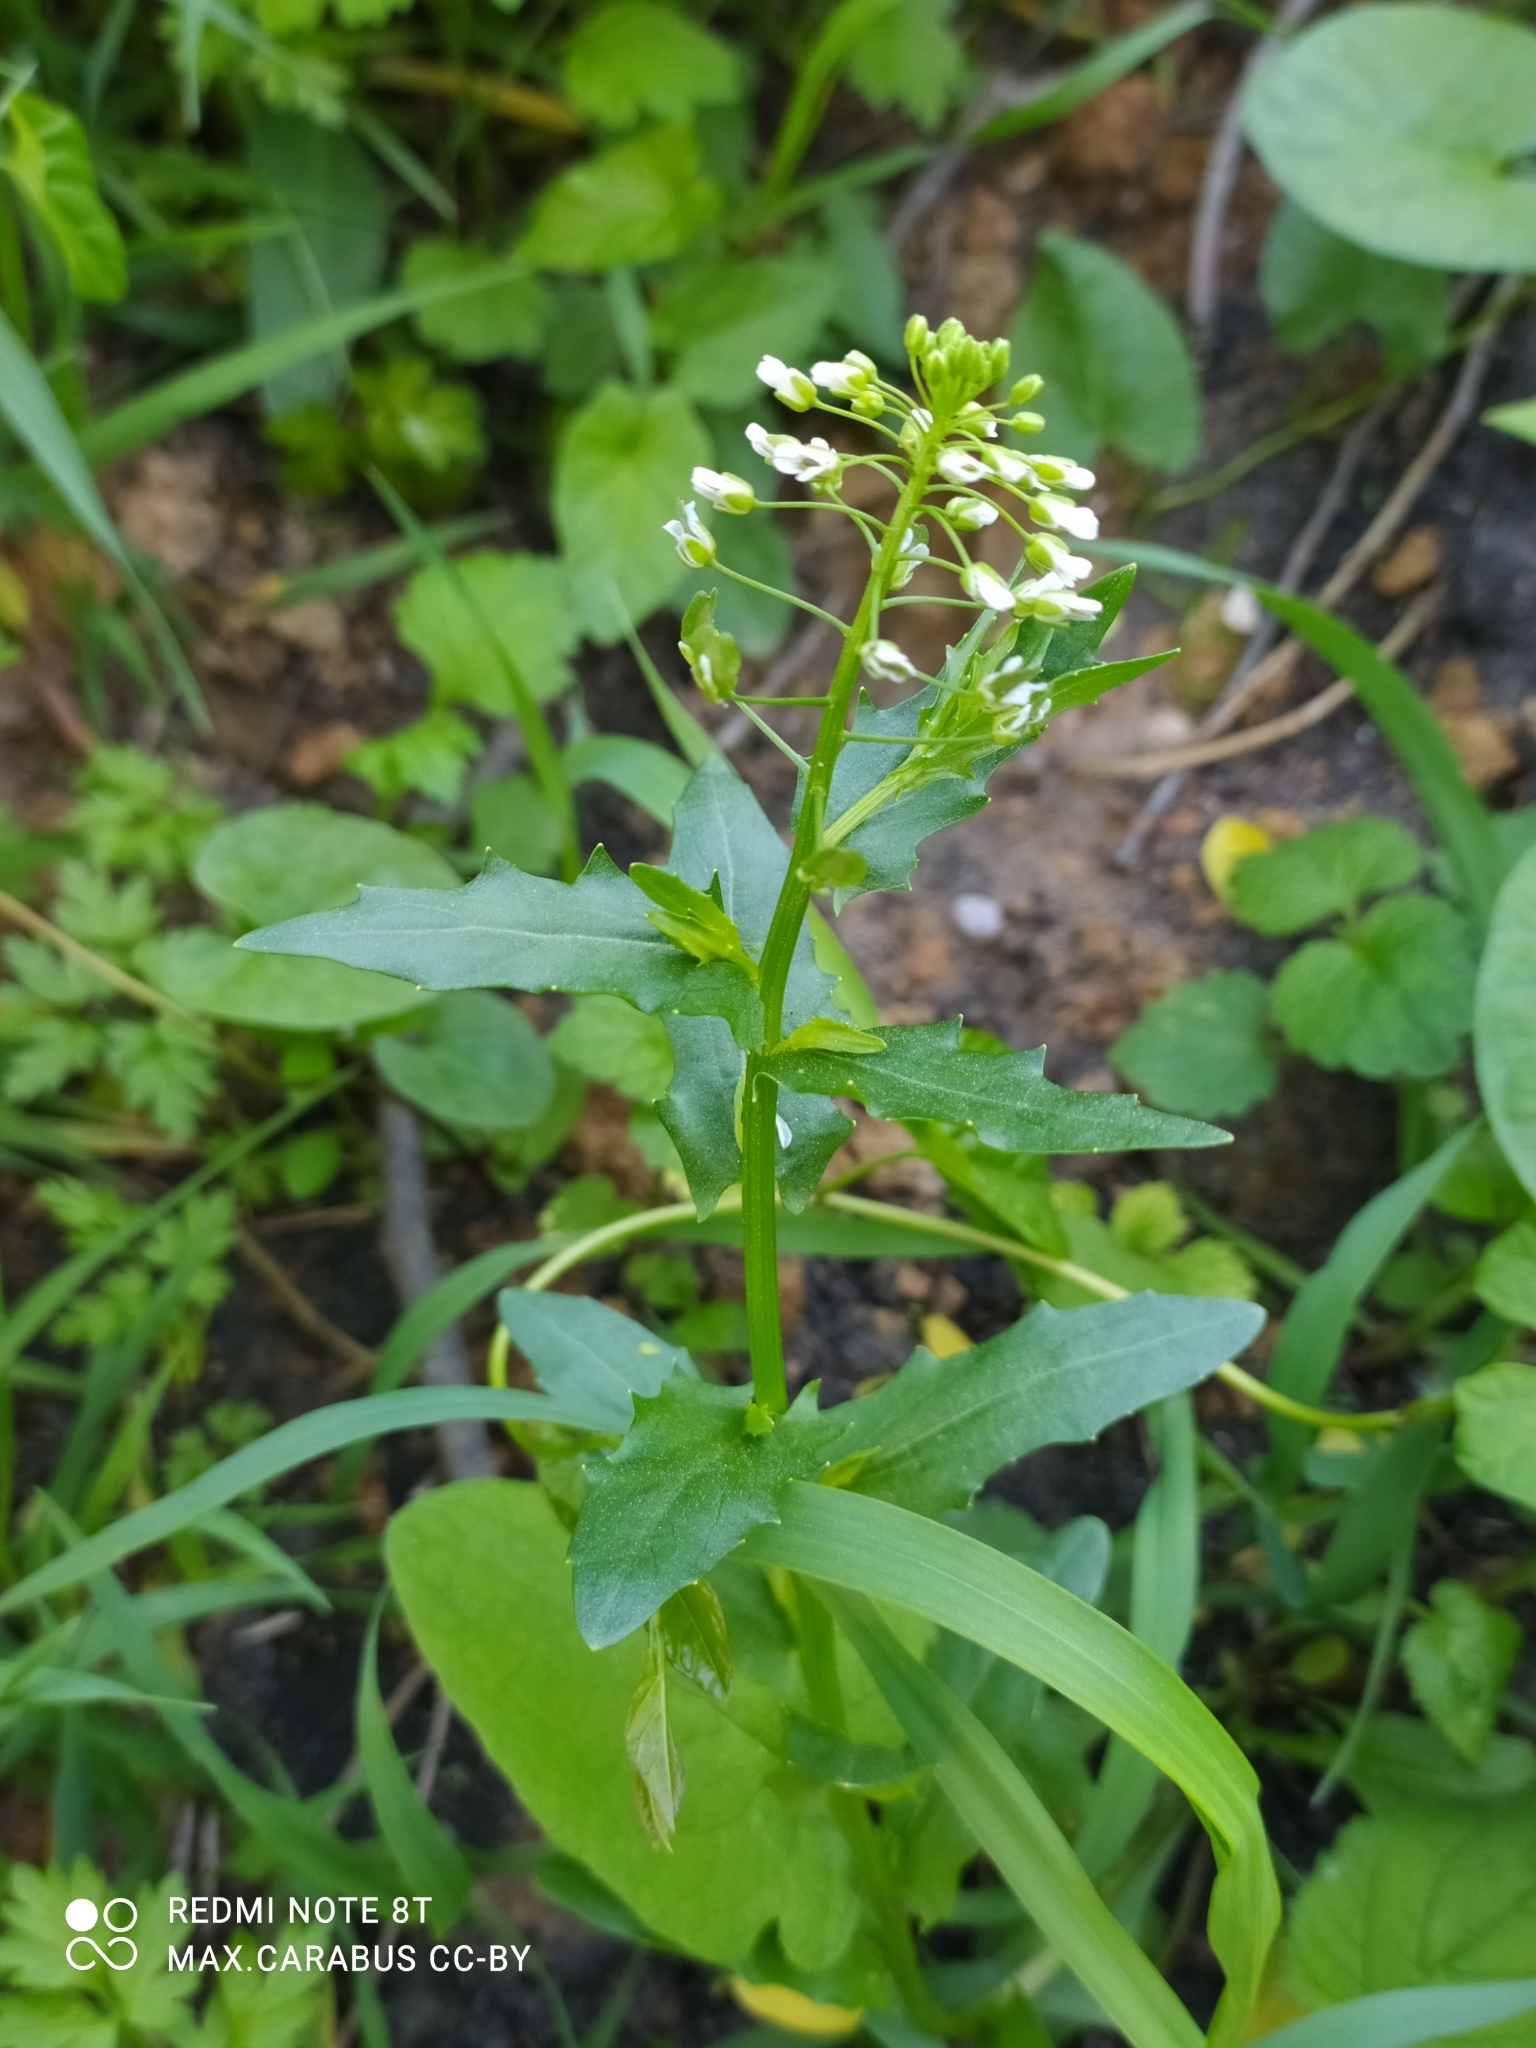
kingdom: Plantae
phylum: Tracheophyta
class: Magnoliopsida
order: Brassicales
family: Brassicaceae
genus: Thlaspi
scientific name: Thlaspi arvense
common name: Field pennycress
